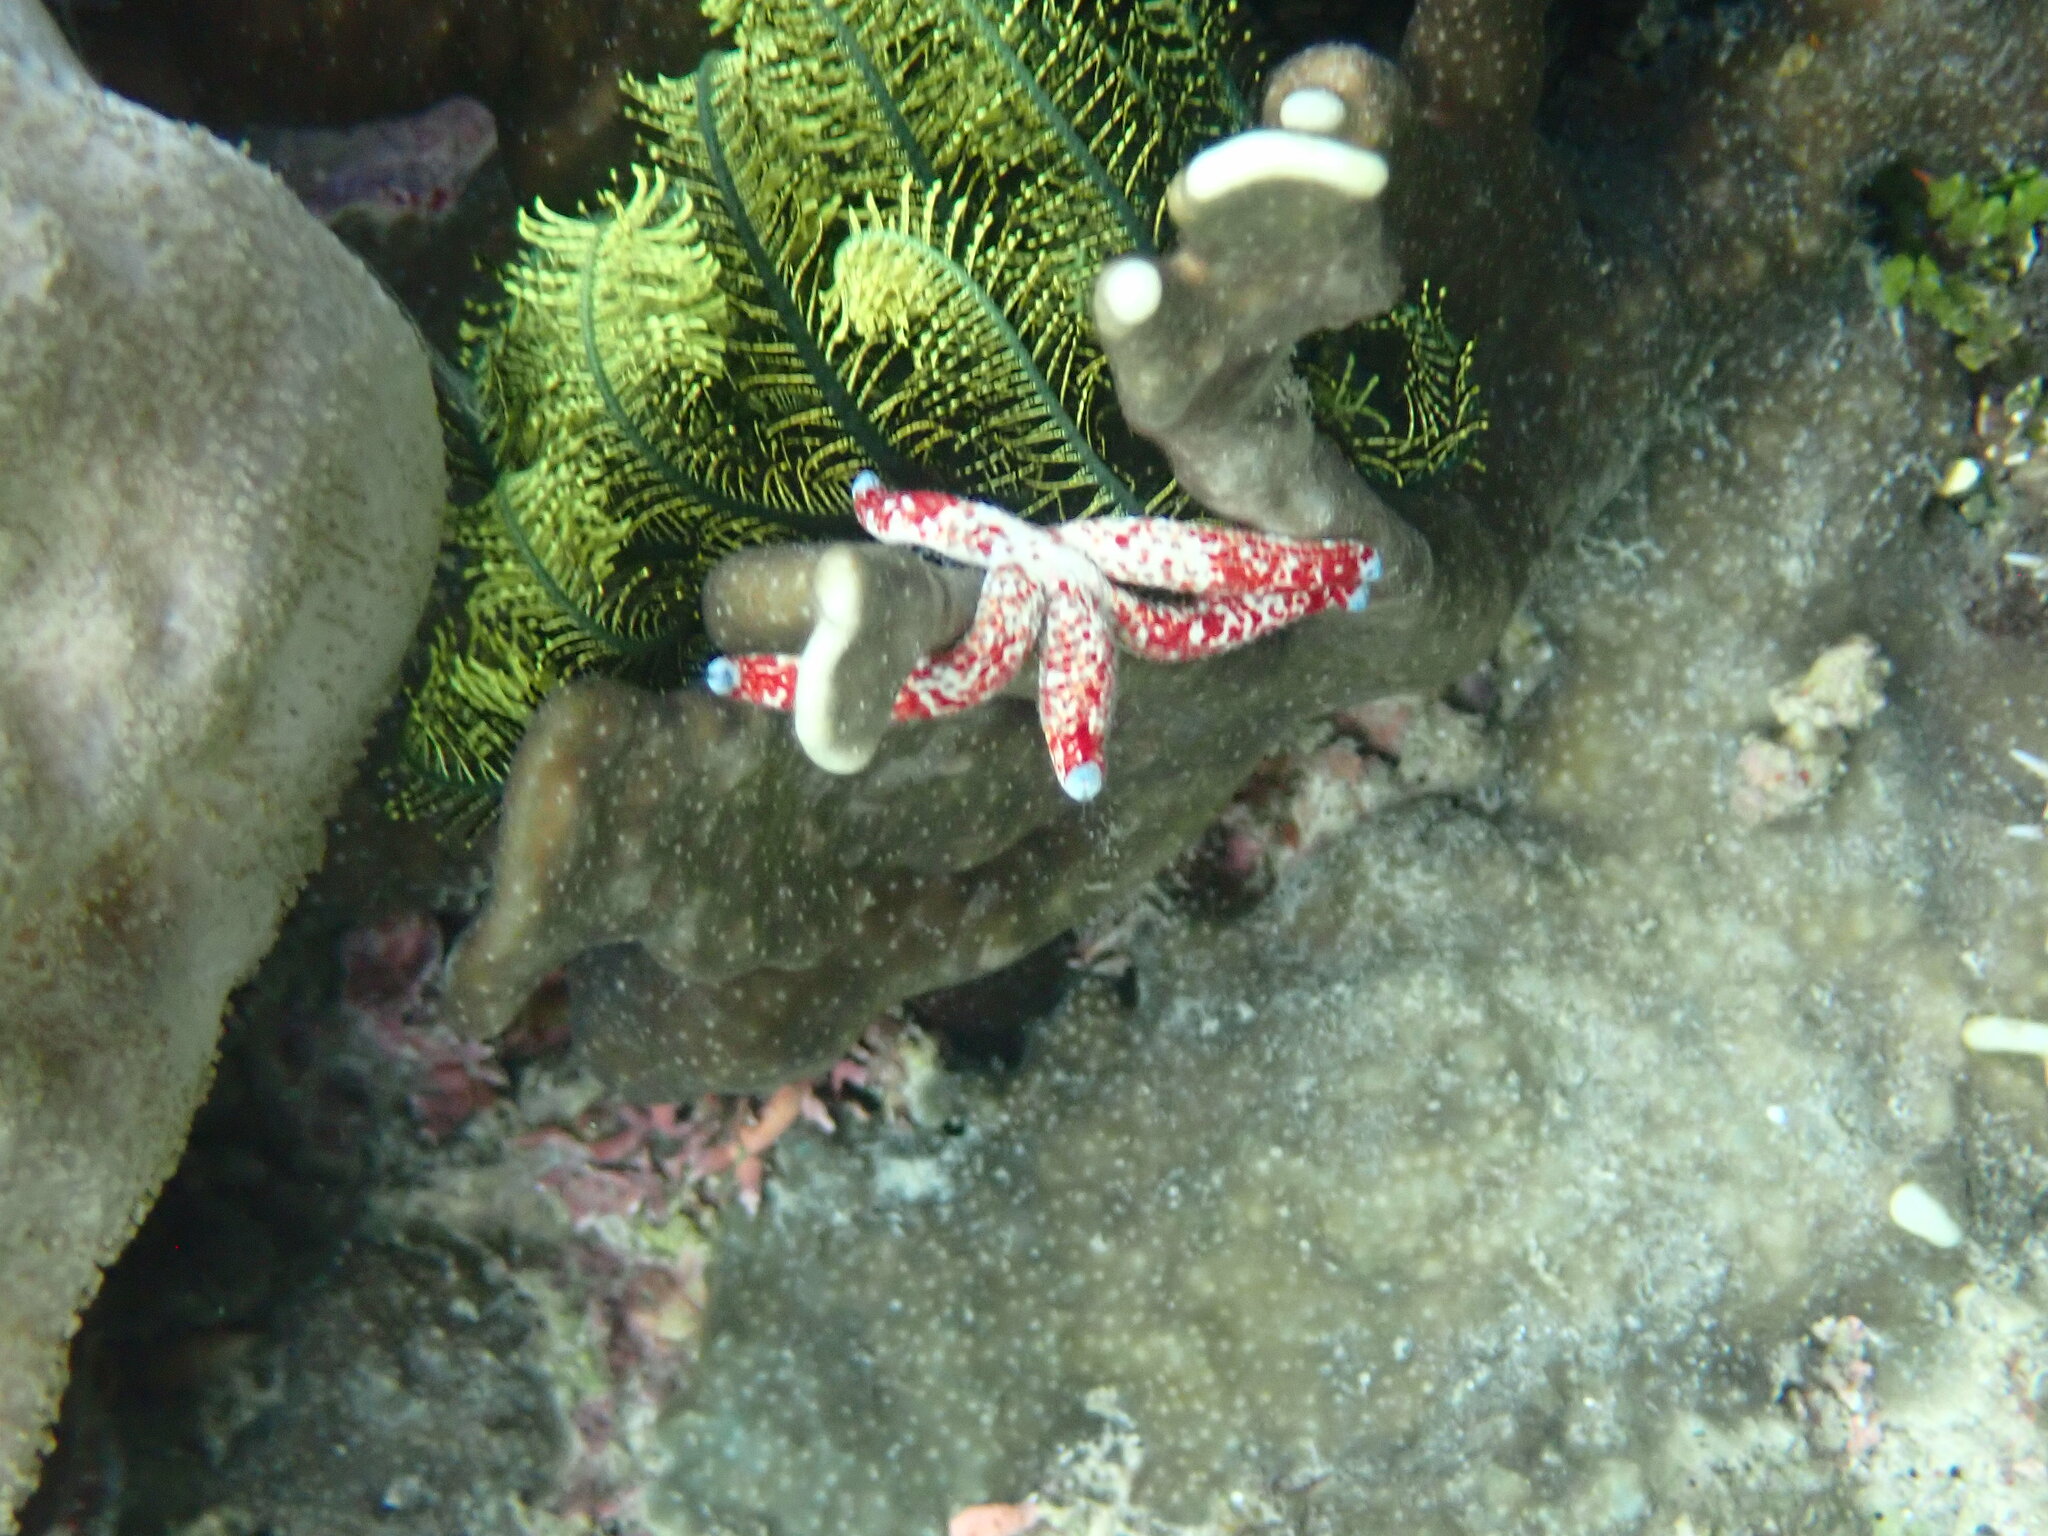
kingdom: Animalia
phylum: Echinodermata
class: Asteroidea
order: Valvatida
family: Ophidiasteridae
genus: Linckia
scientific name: Linckia multifora
